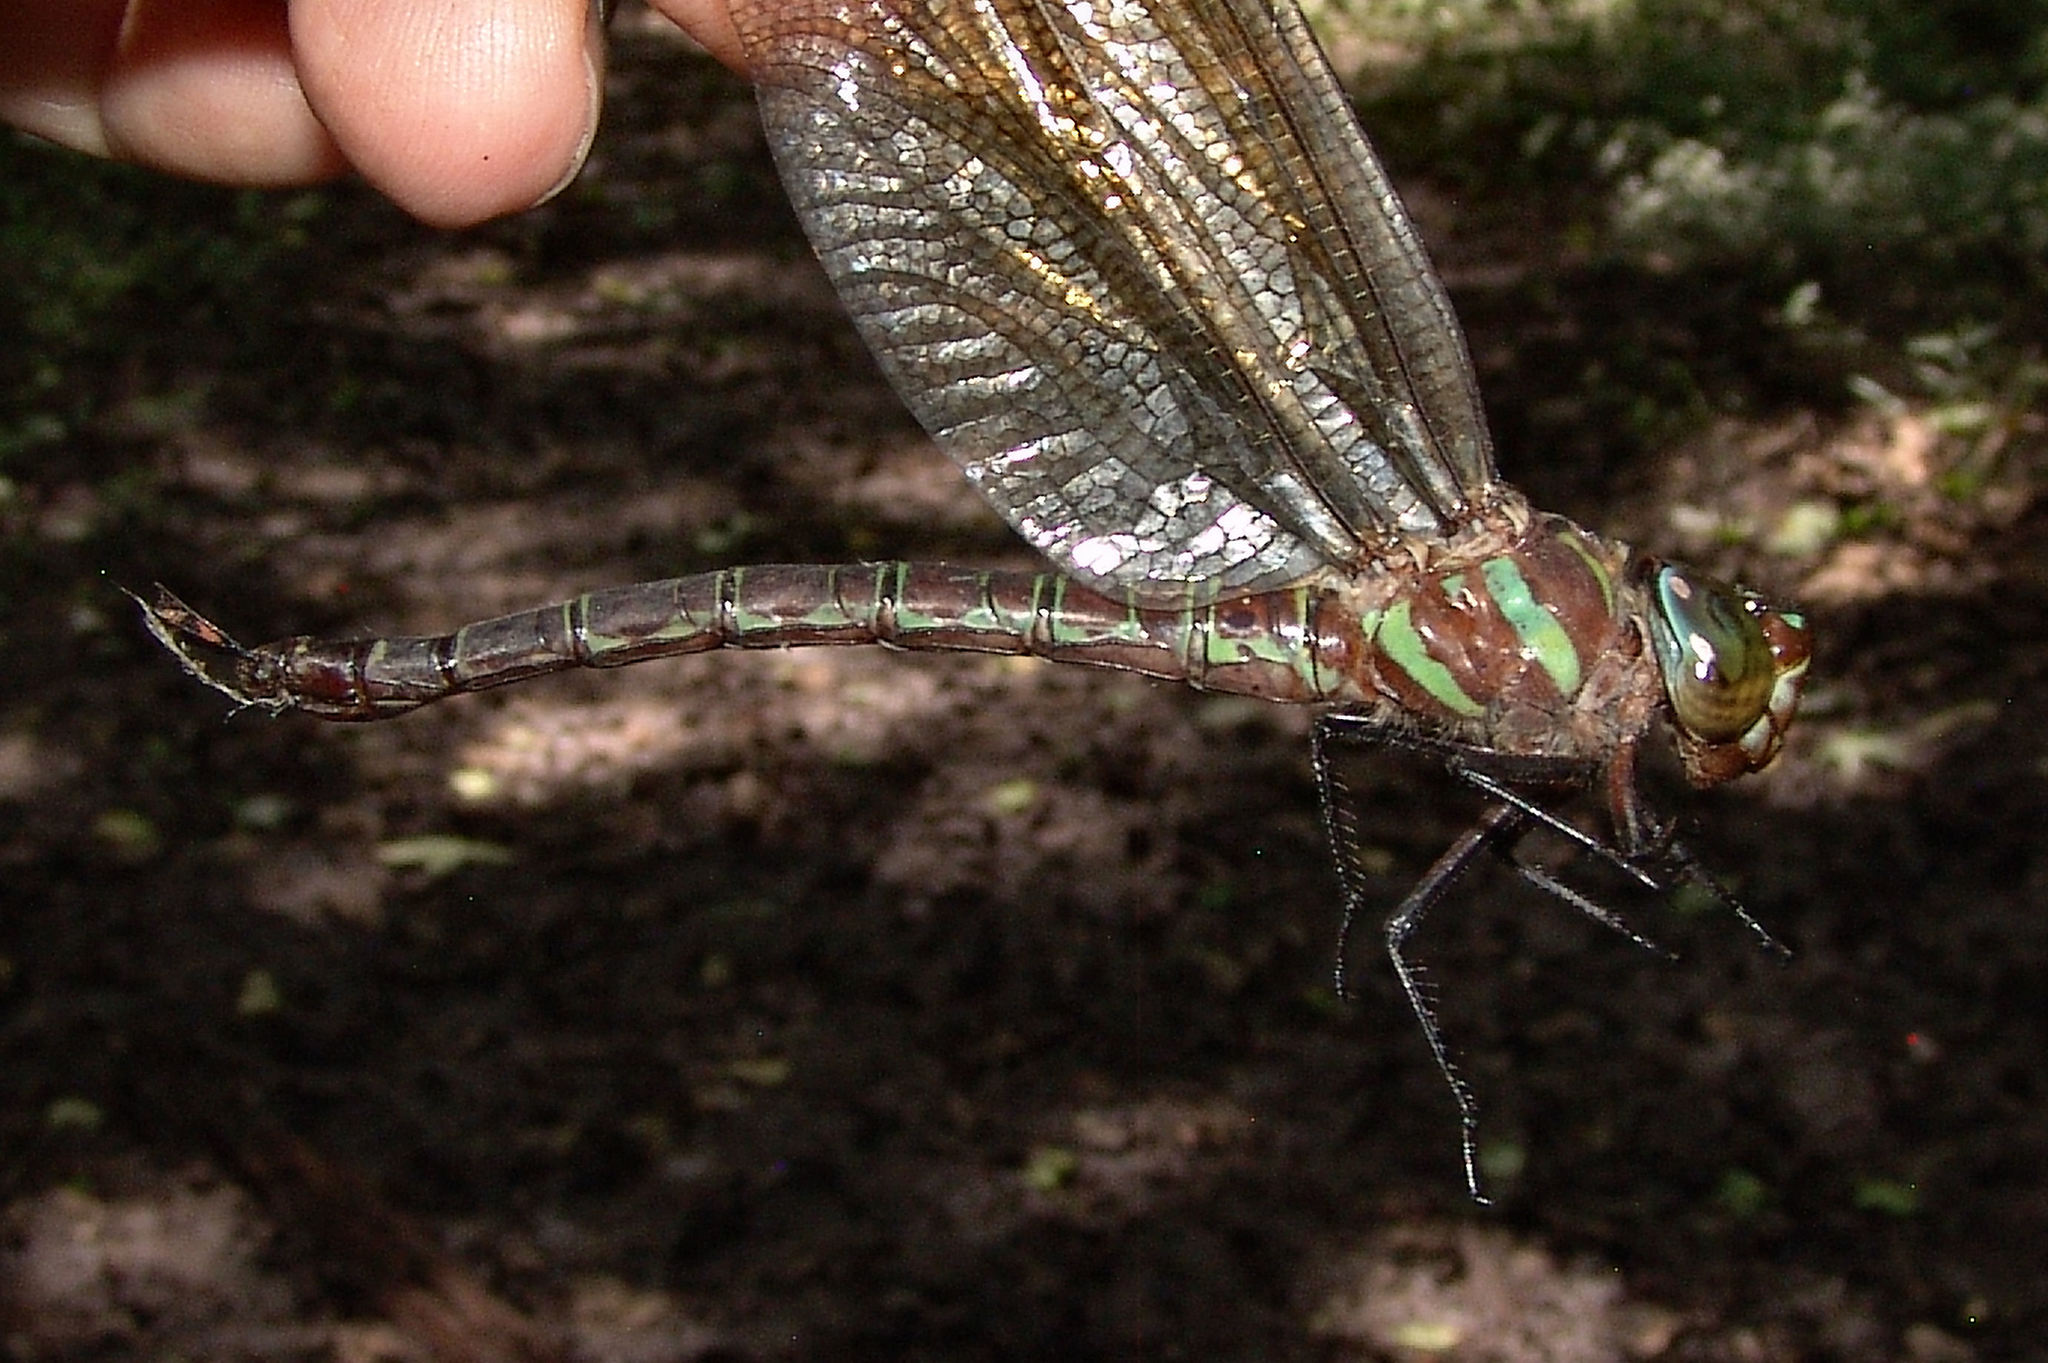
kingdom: Animalia
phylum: Arthropoda
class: Insecta
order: Odonata
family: Aeshnidae
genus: Epiaeschna
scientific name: Epiaeschna heros
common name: Swamp darner
